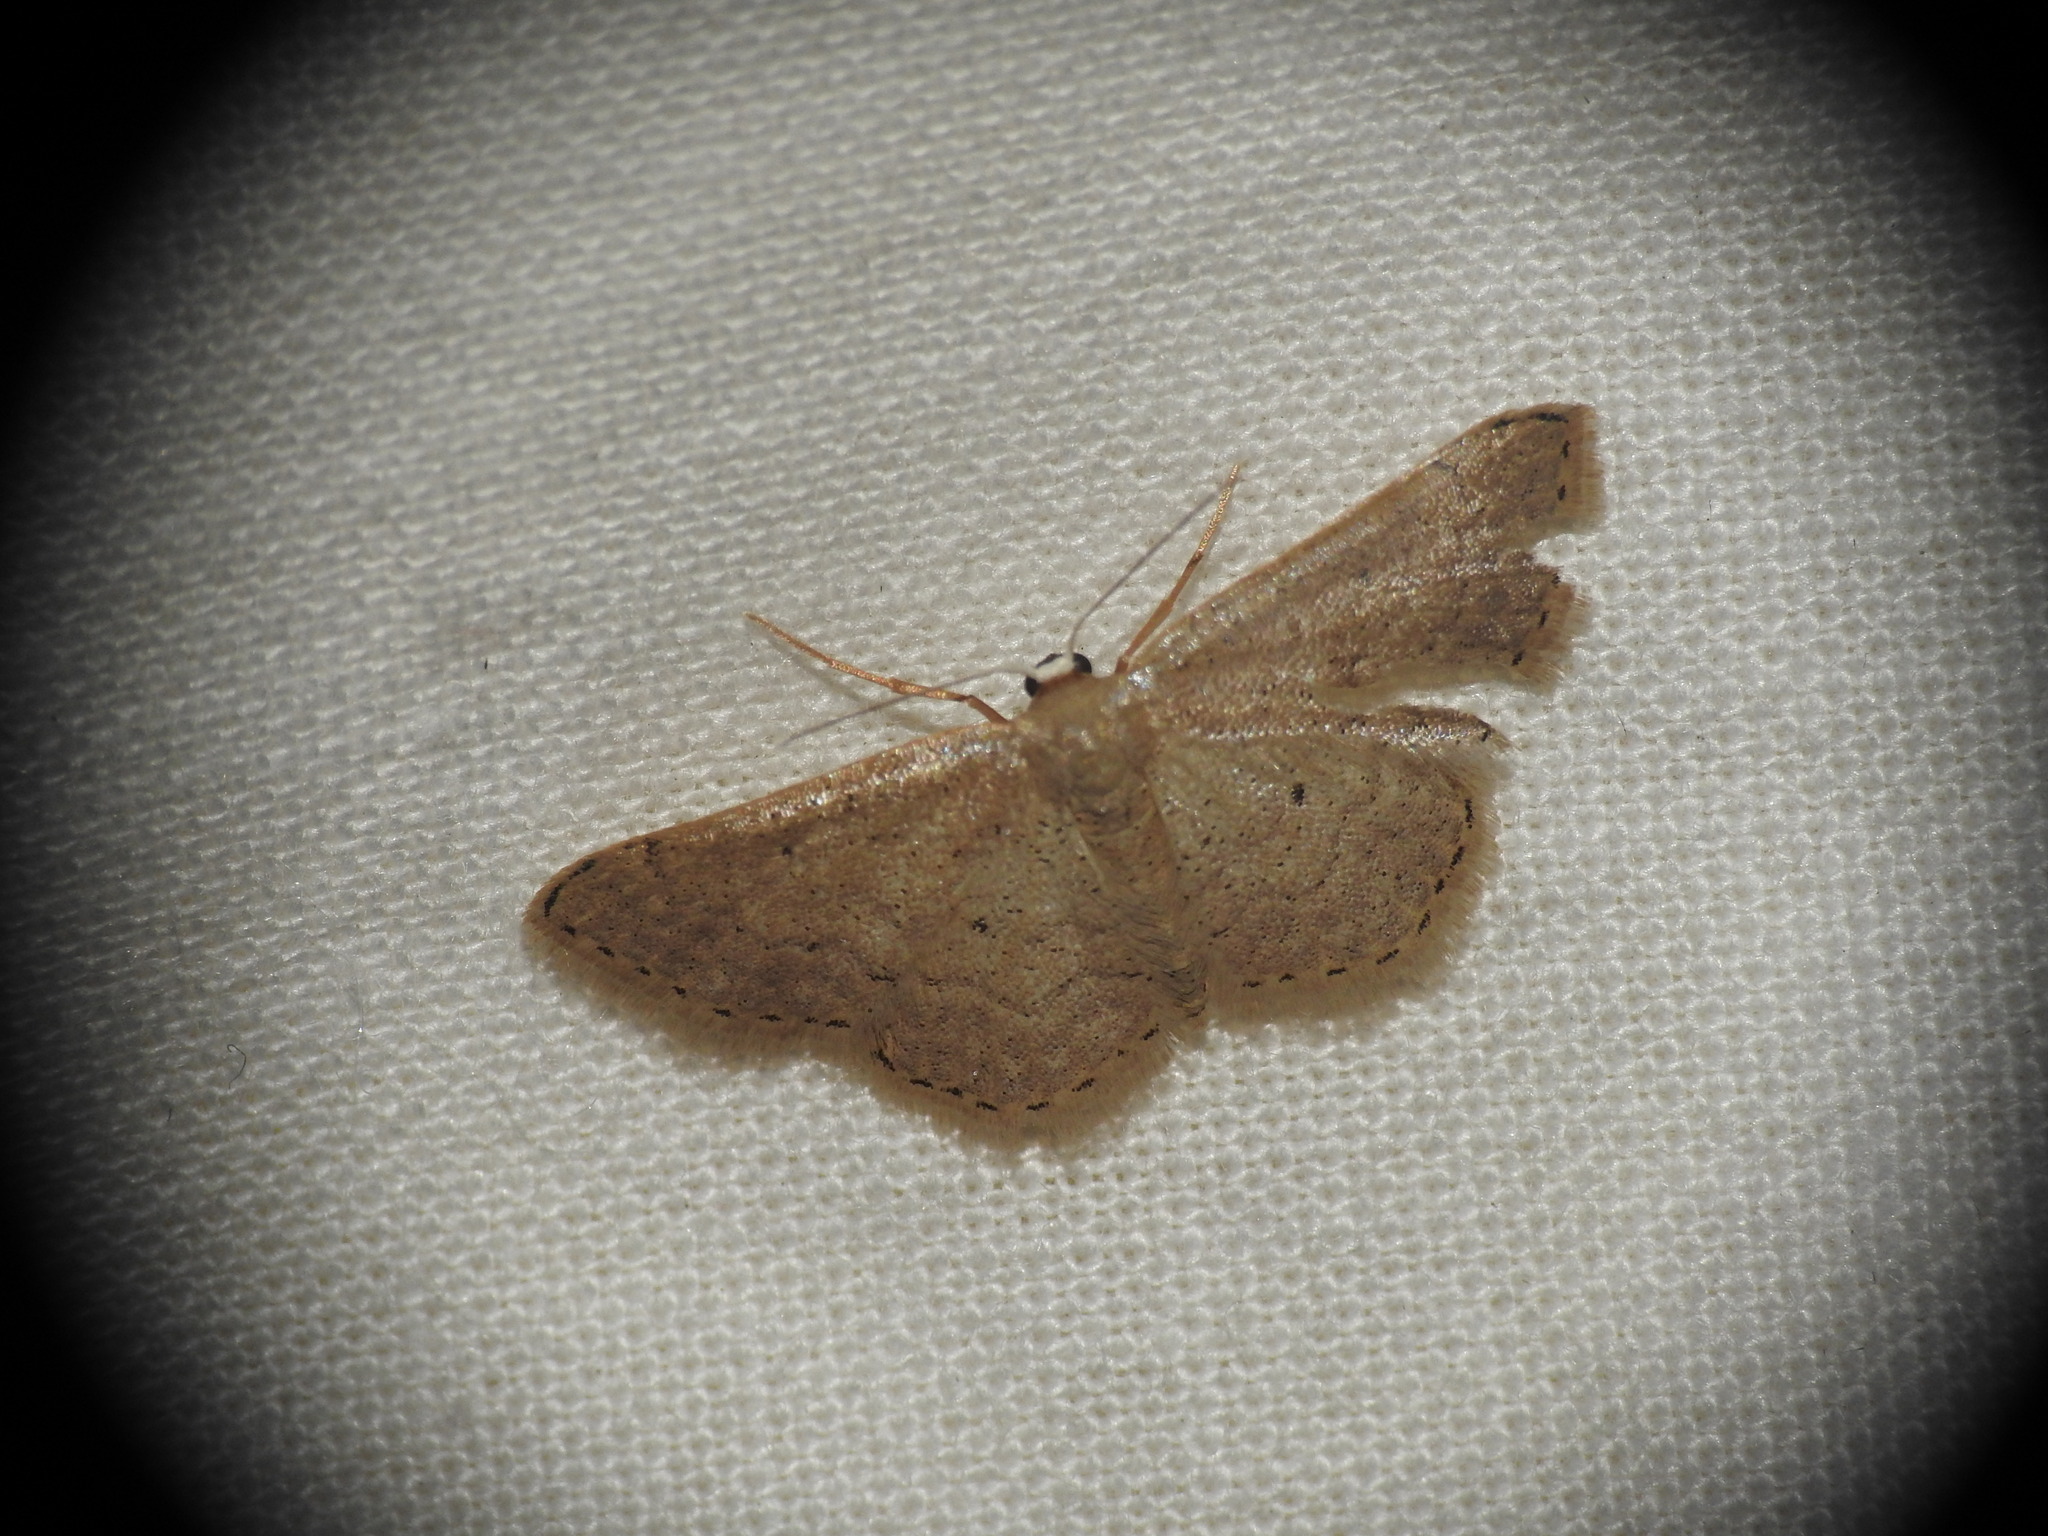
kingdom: Animalia
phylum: Arthropoda
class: Insecta
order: Lepidoptera
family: Geometridae
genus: Idaea
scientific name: Idaea obsoletaria
